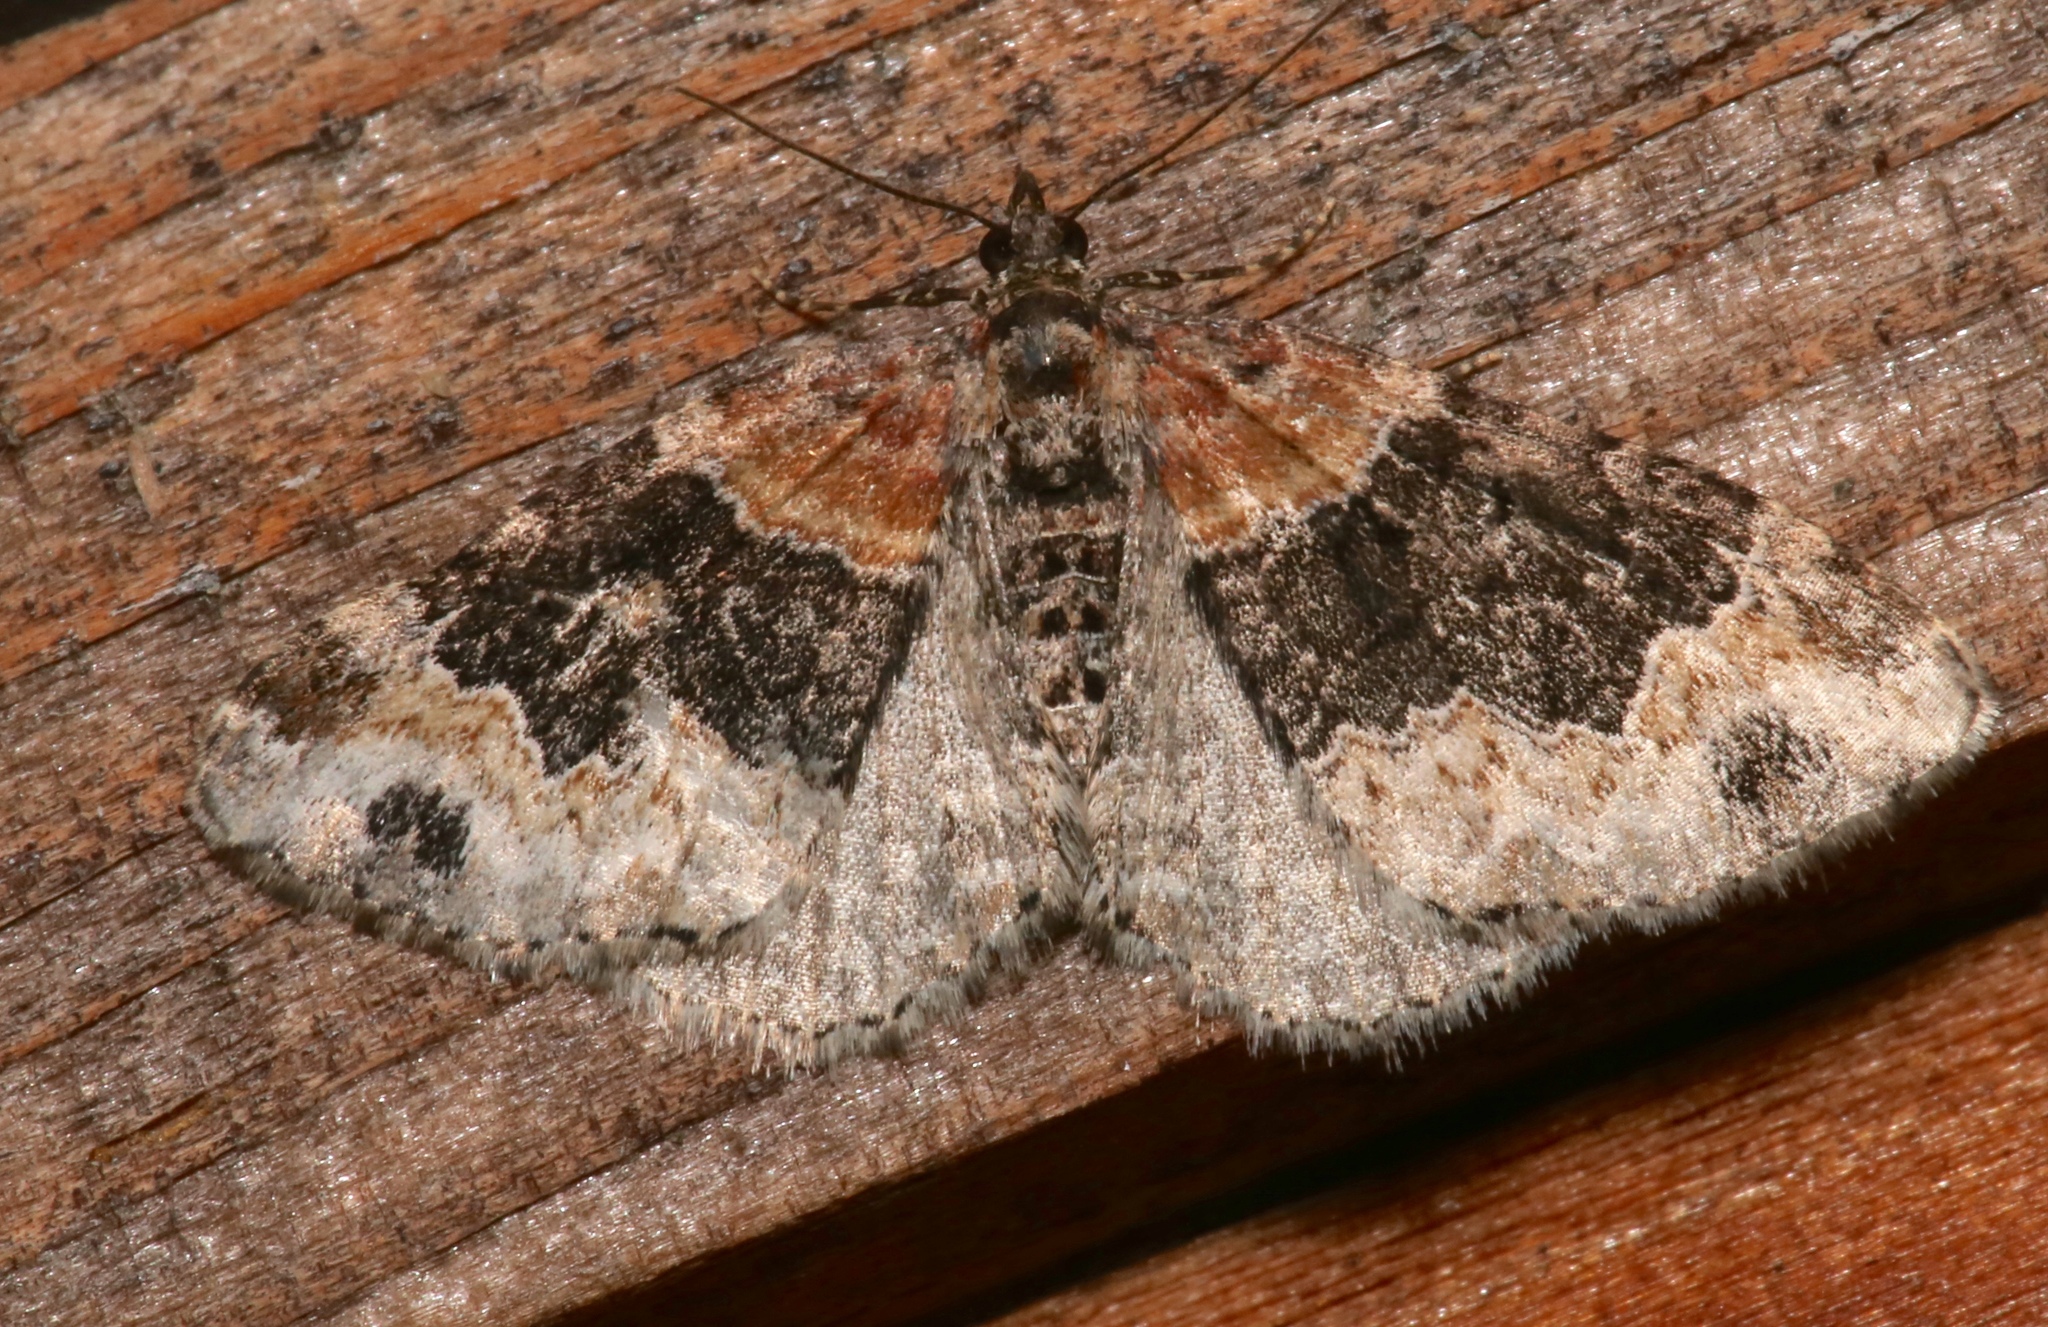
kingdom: Animalia
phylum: Arthropoda
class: Insecta
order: Lepidoptera
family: Geometridae
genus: Xanthorhoe
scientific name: Xanthorhoe ferrugata
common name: Dark-barred twin-spot carpet
